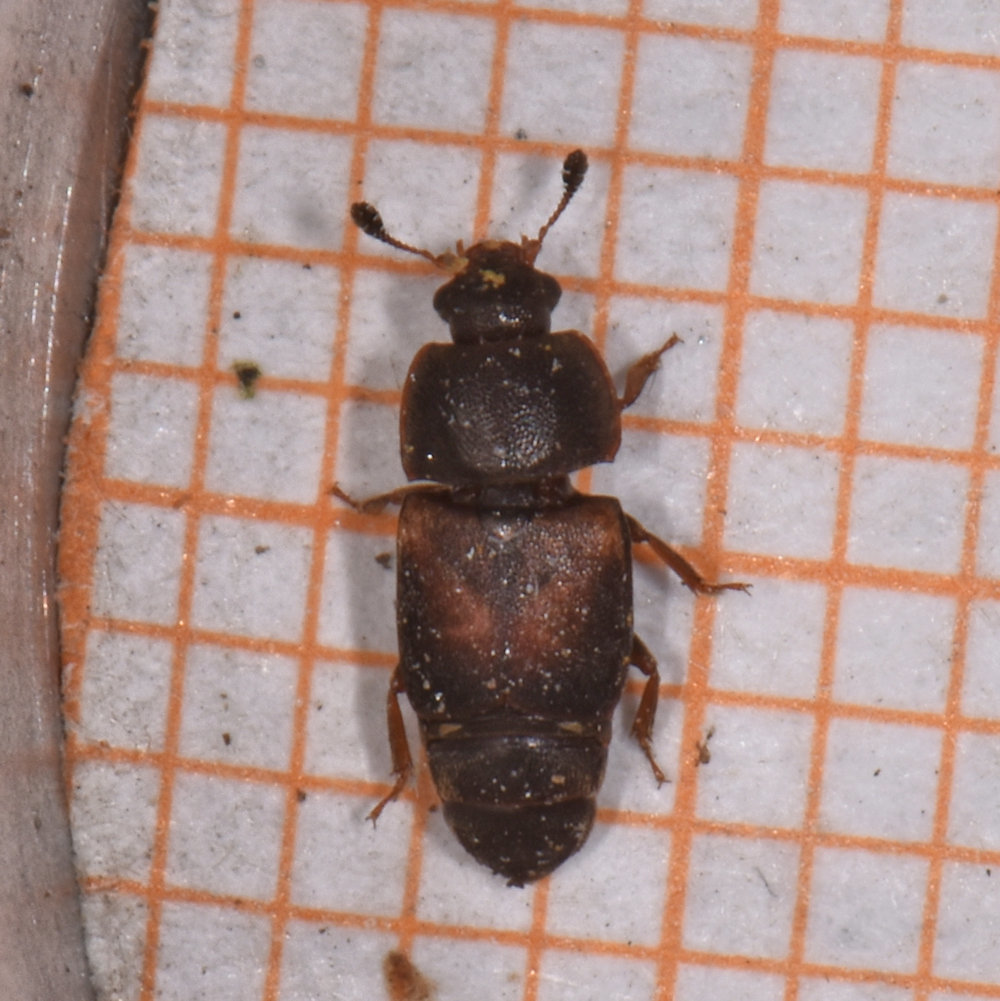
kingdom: Animalia
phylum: Arthropoda
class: Insecta
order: Coleoptera
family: Nitidulidae
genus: Carpophilus
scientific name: Carpophilus
